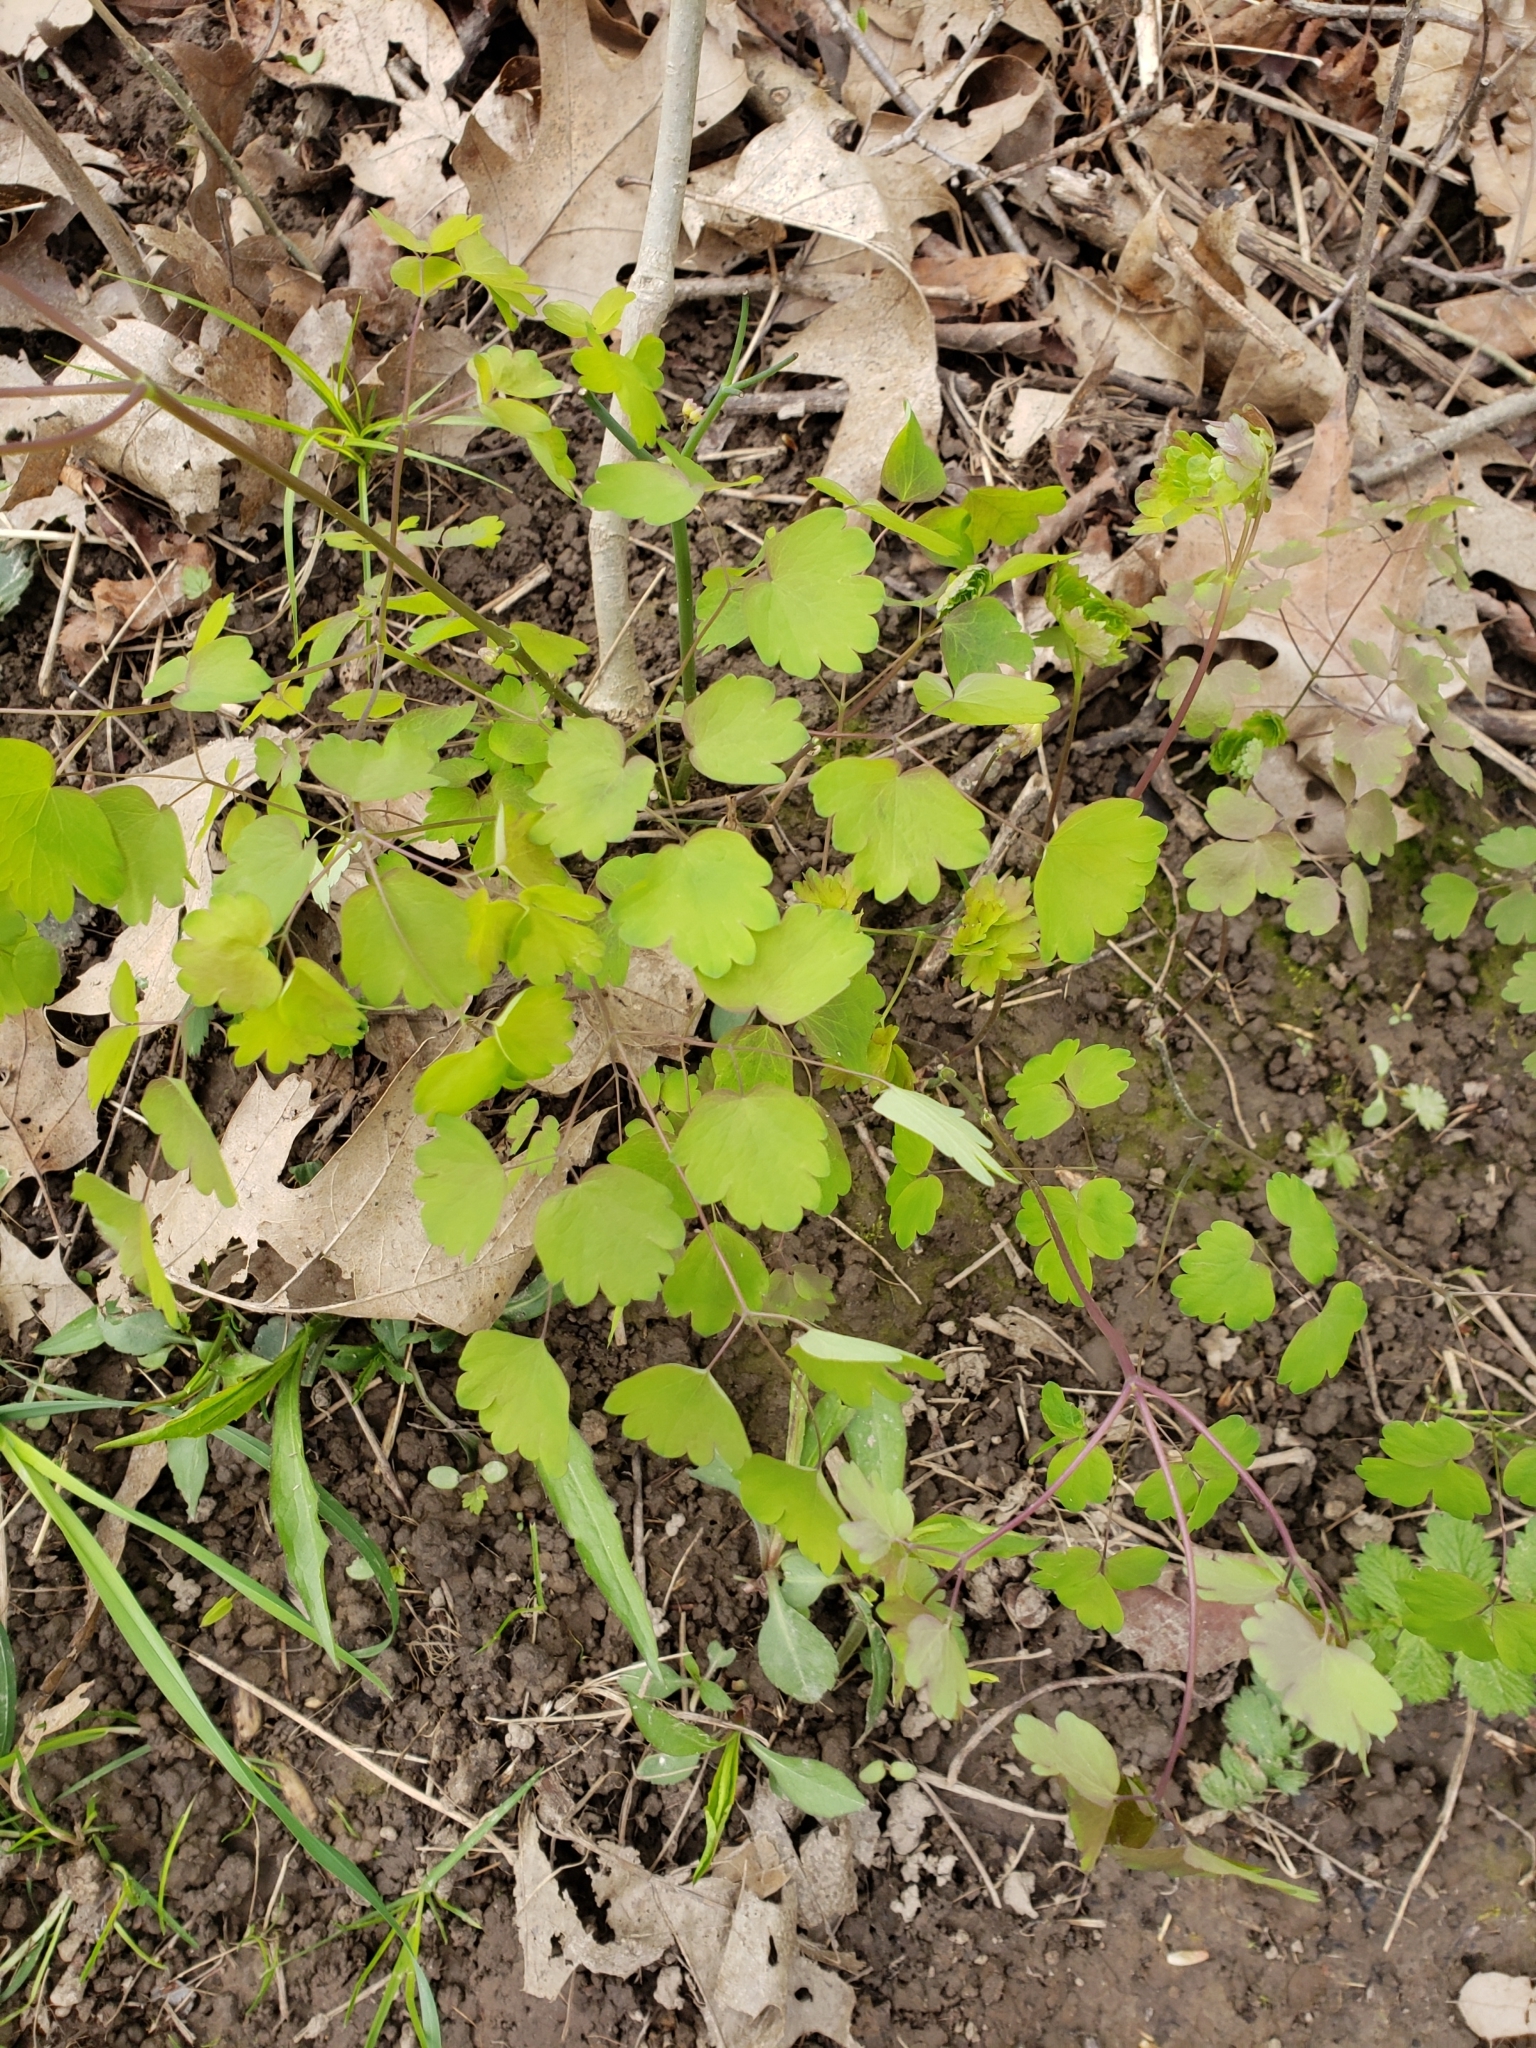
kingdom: Plantae
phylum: Tracheophyta
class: Magnoliopsida
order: Ranunculales
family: Ranunculaceae
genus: Thalictrum
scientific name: Thalictrum dioicum
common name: Early meadow-rue
